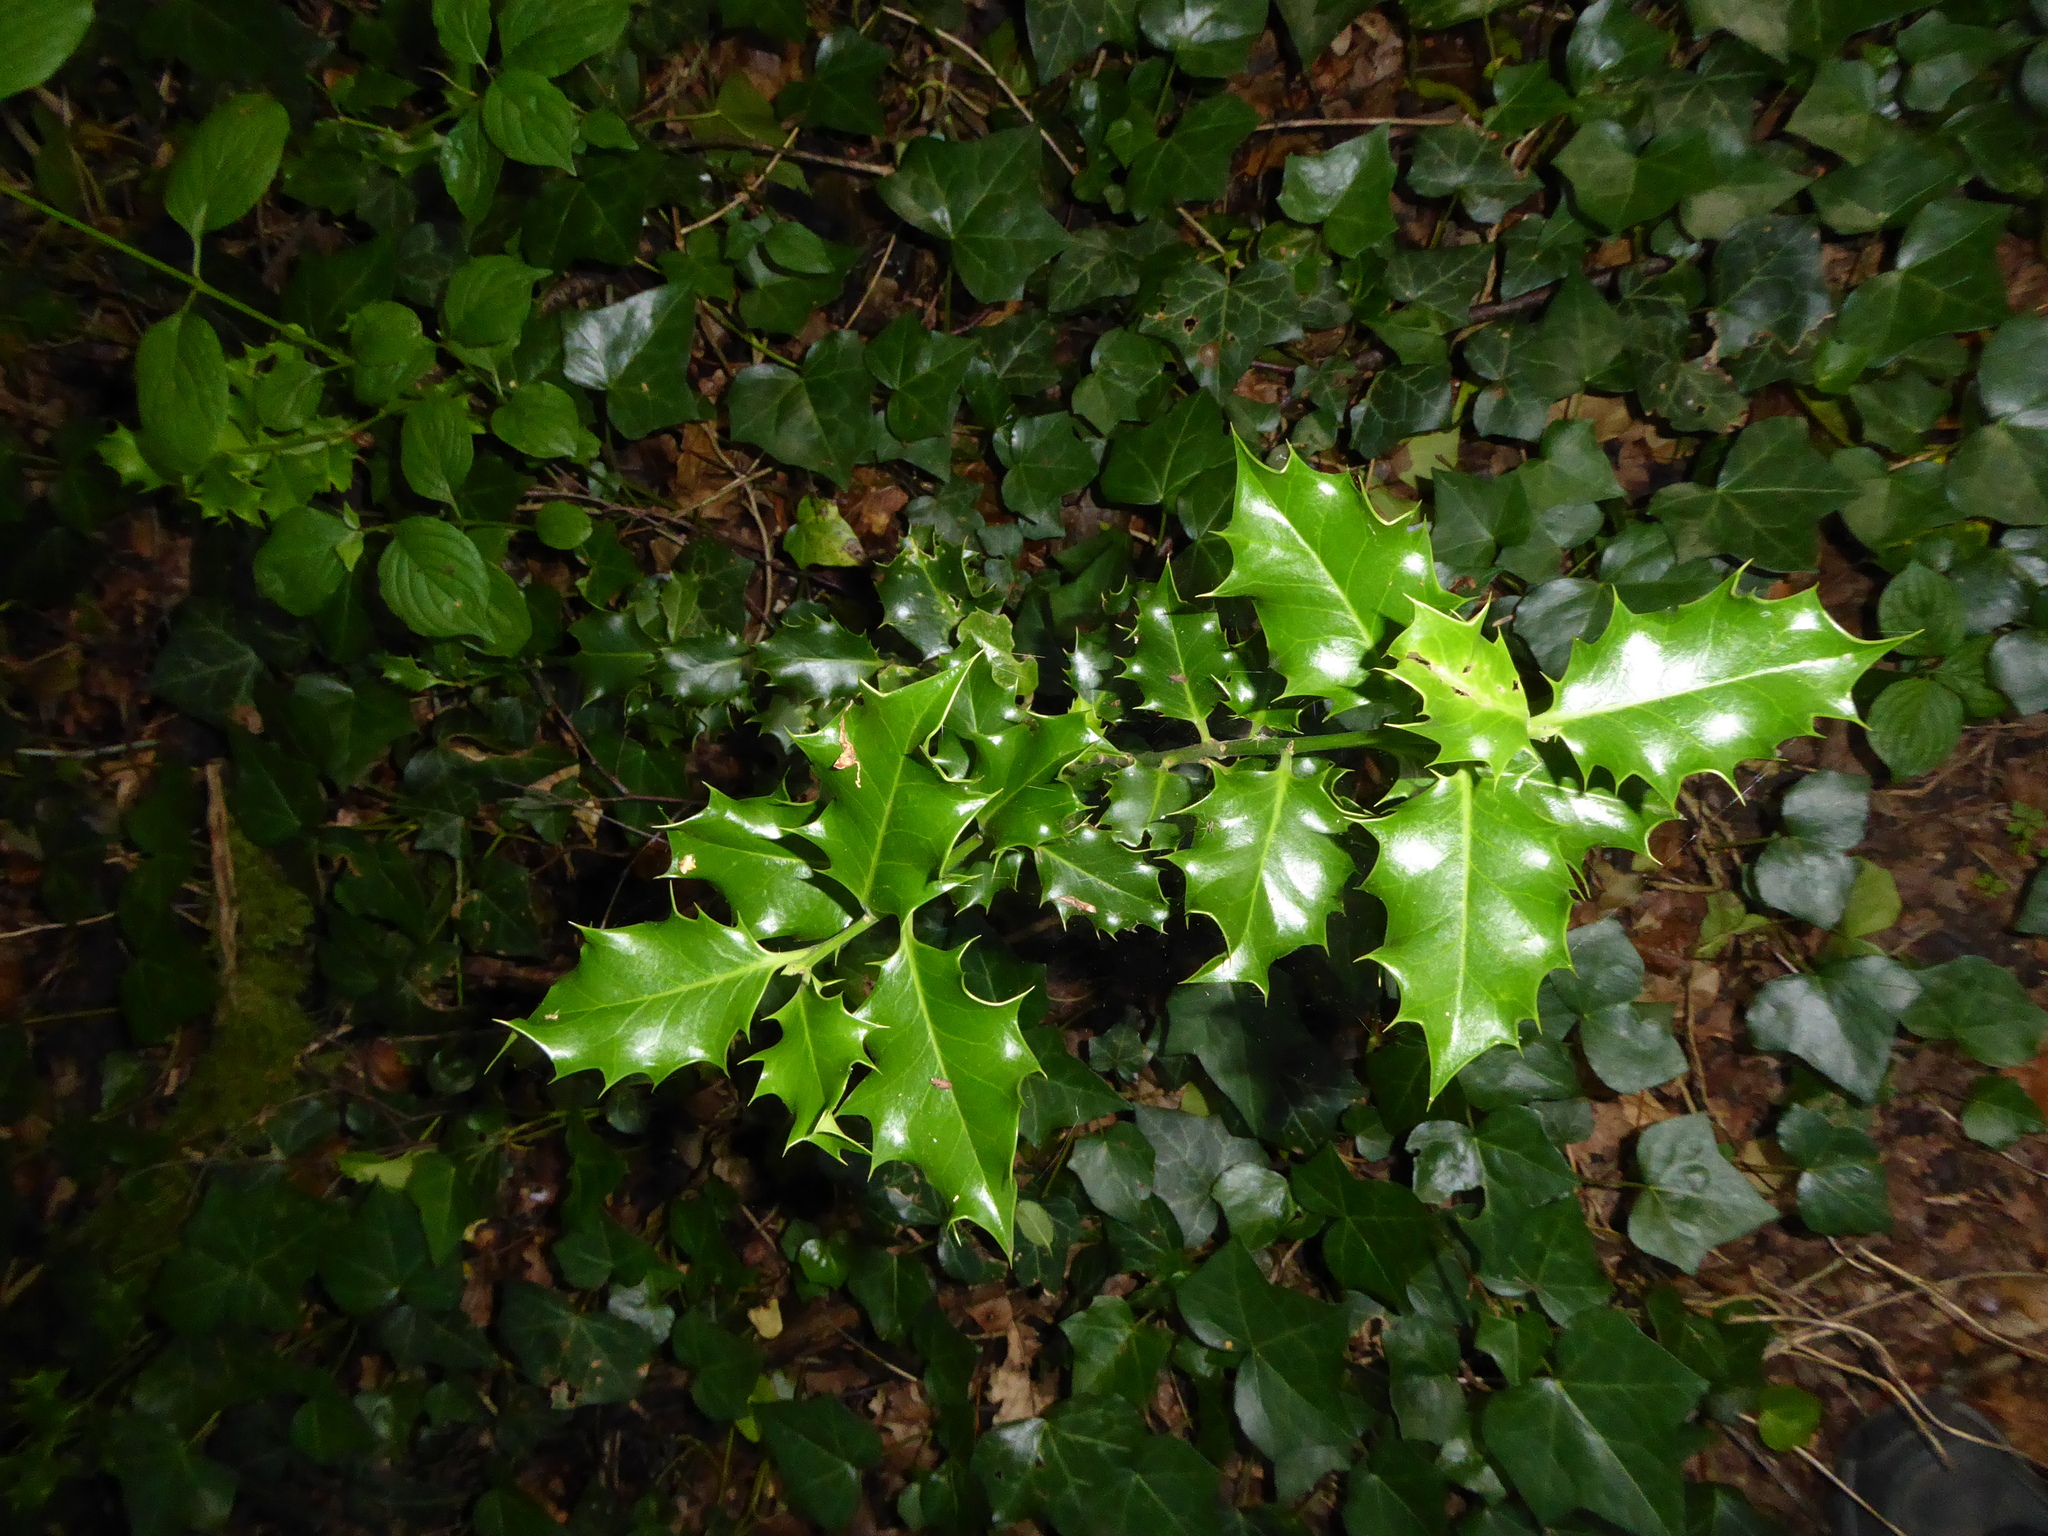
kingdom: Plantae
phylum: Tracheophyta
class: Magnoliopsida
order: Aquifoliales
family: Aquifoliaceae
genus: Ilex
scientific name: Ilex aquifolium
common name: English holly
